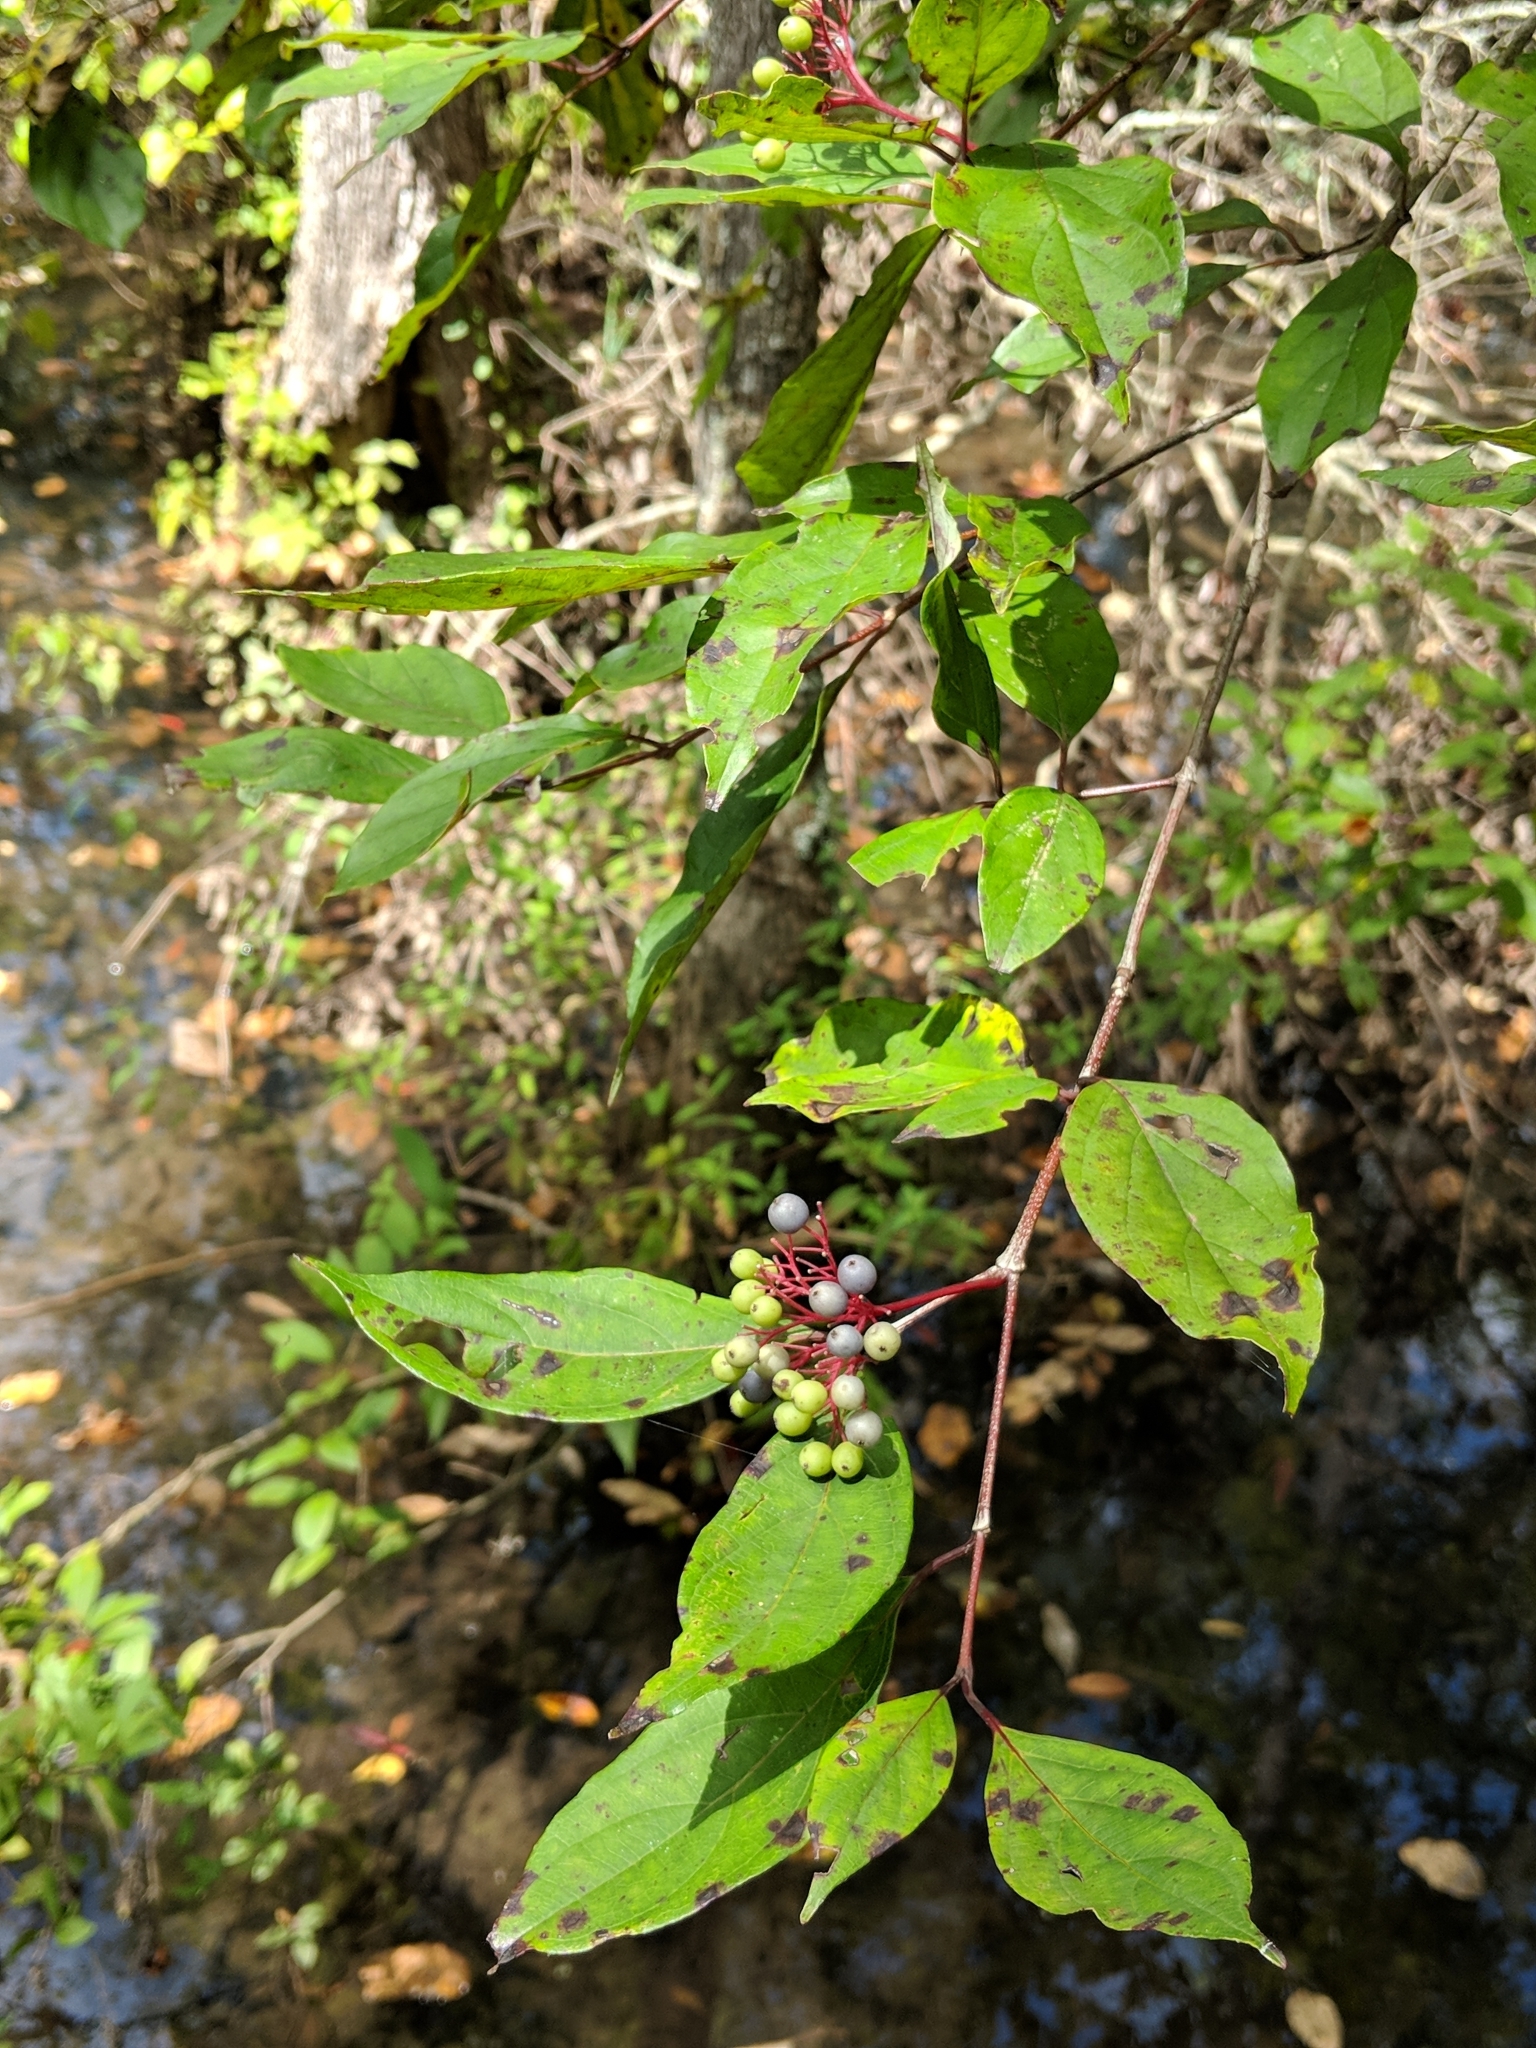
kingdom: Plantae
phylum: Tracheophyta
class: Magnoliopsida
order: Cornales
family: Cornaceae
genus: Cornus
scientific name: Cornus amomum
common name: Silky dogwood
